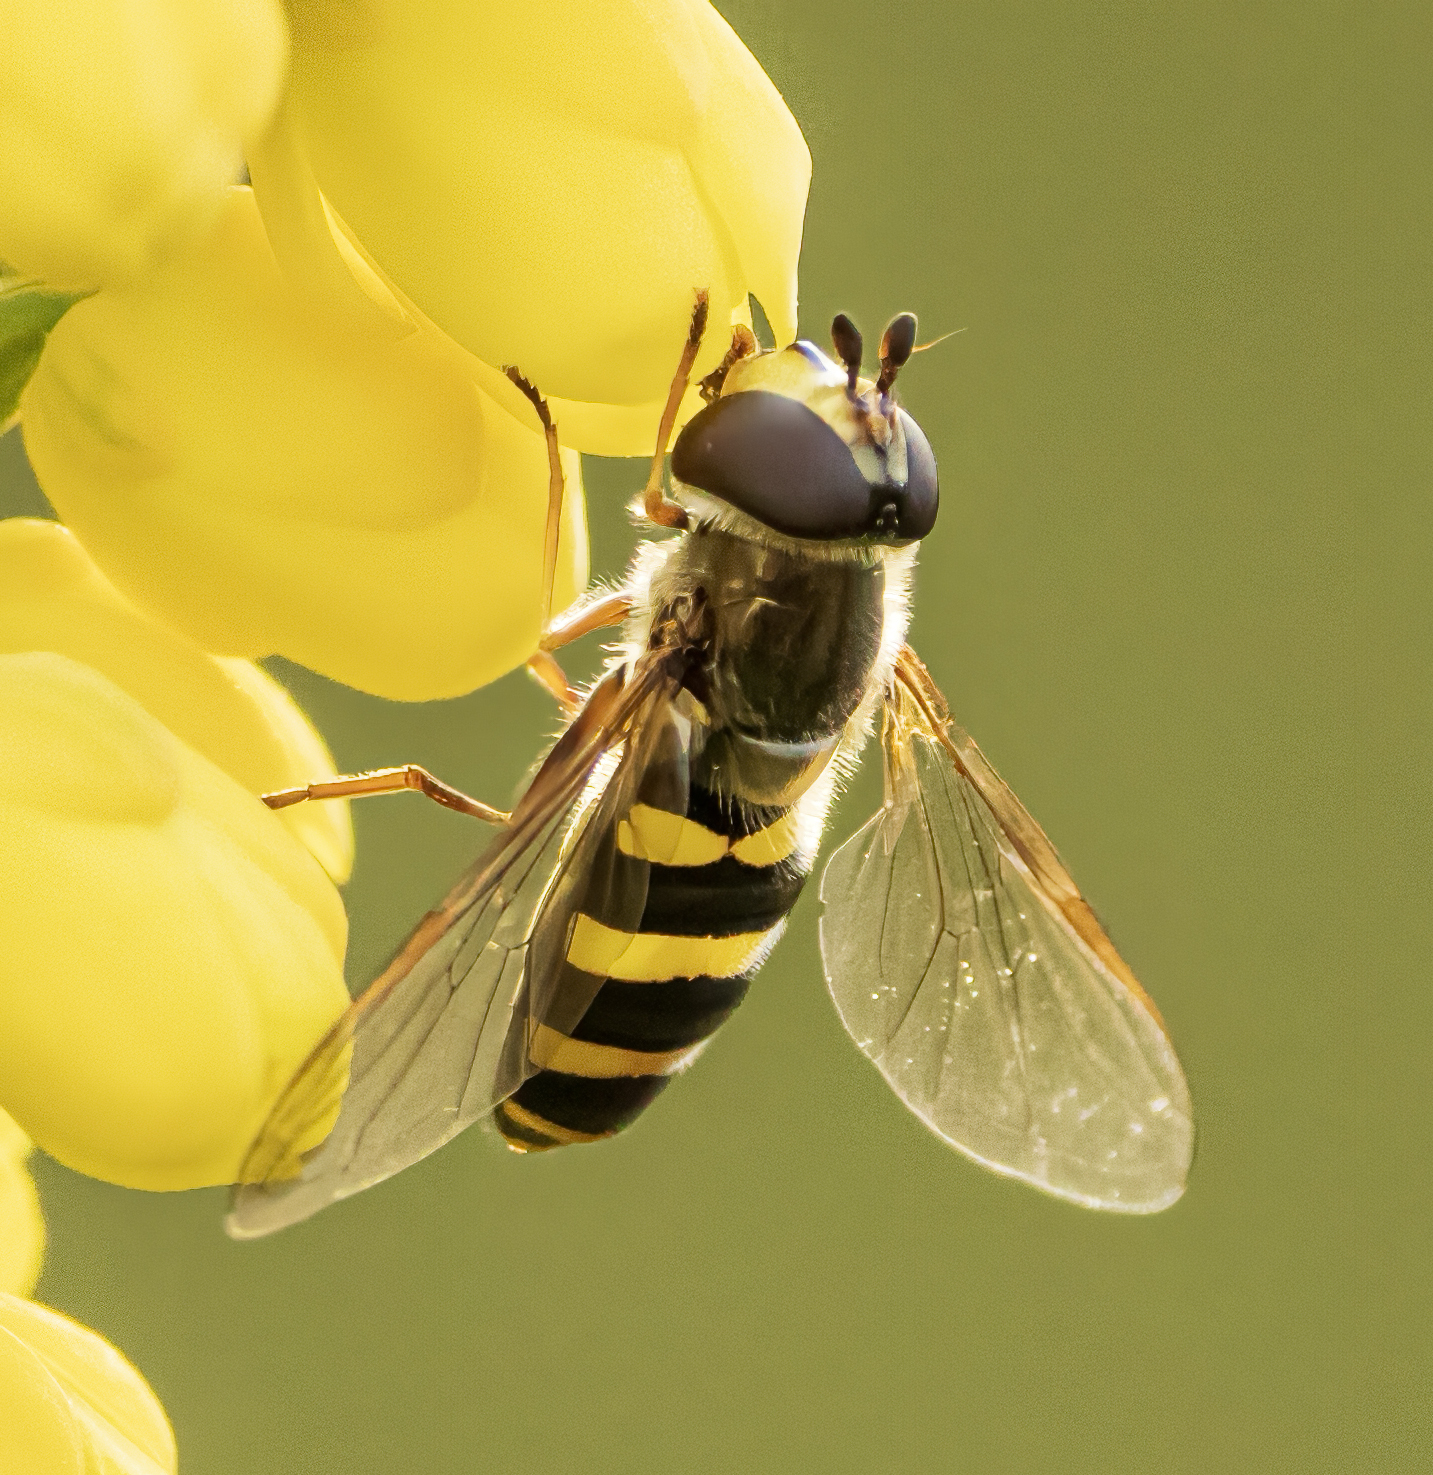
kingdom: Animalia
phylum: Arthropoda
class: Insecta
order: Diptera
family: Syrphidae
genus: Eupeodes
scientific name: Eupeodes
